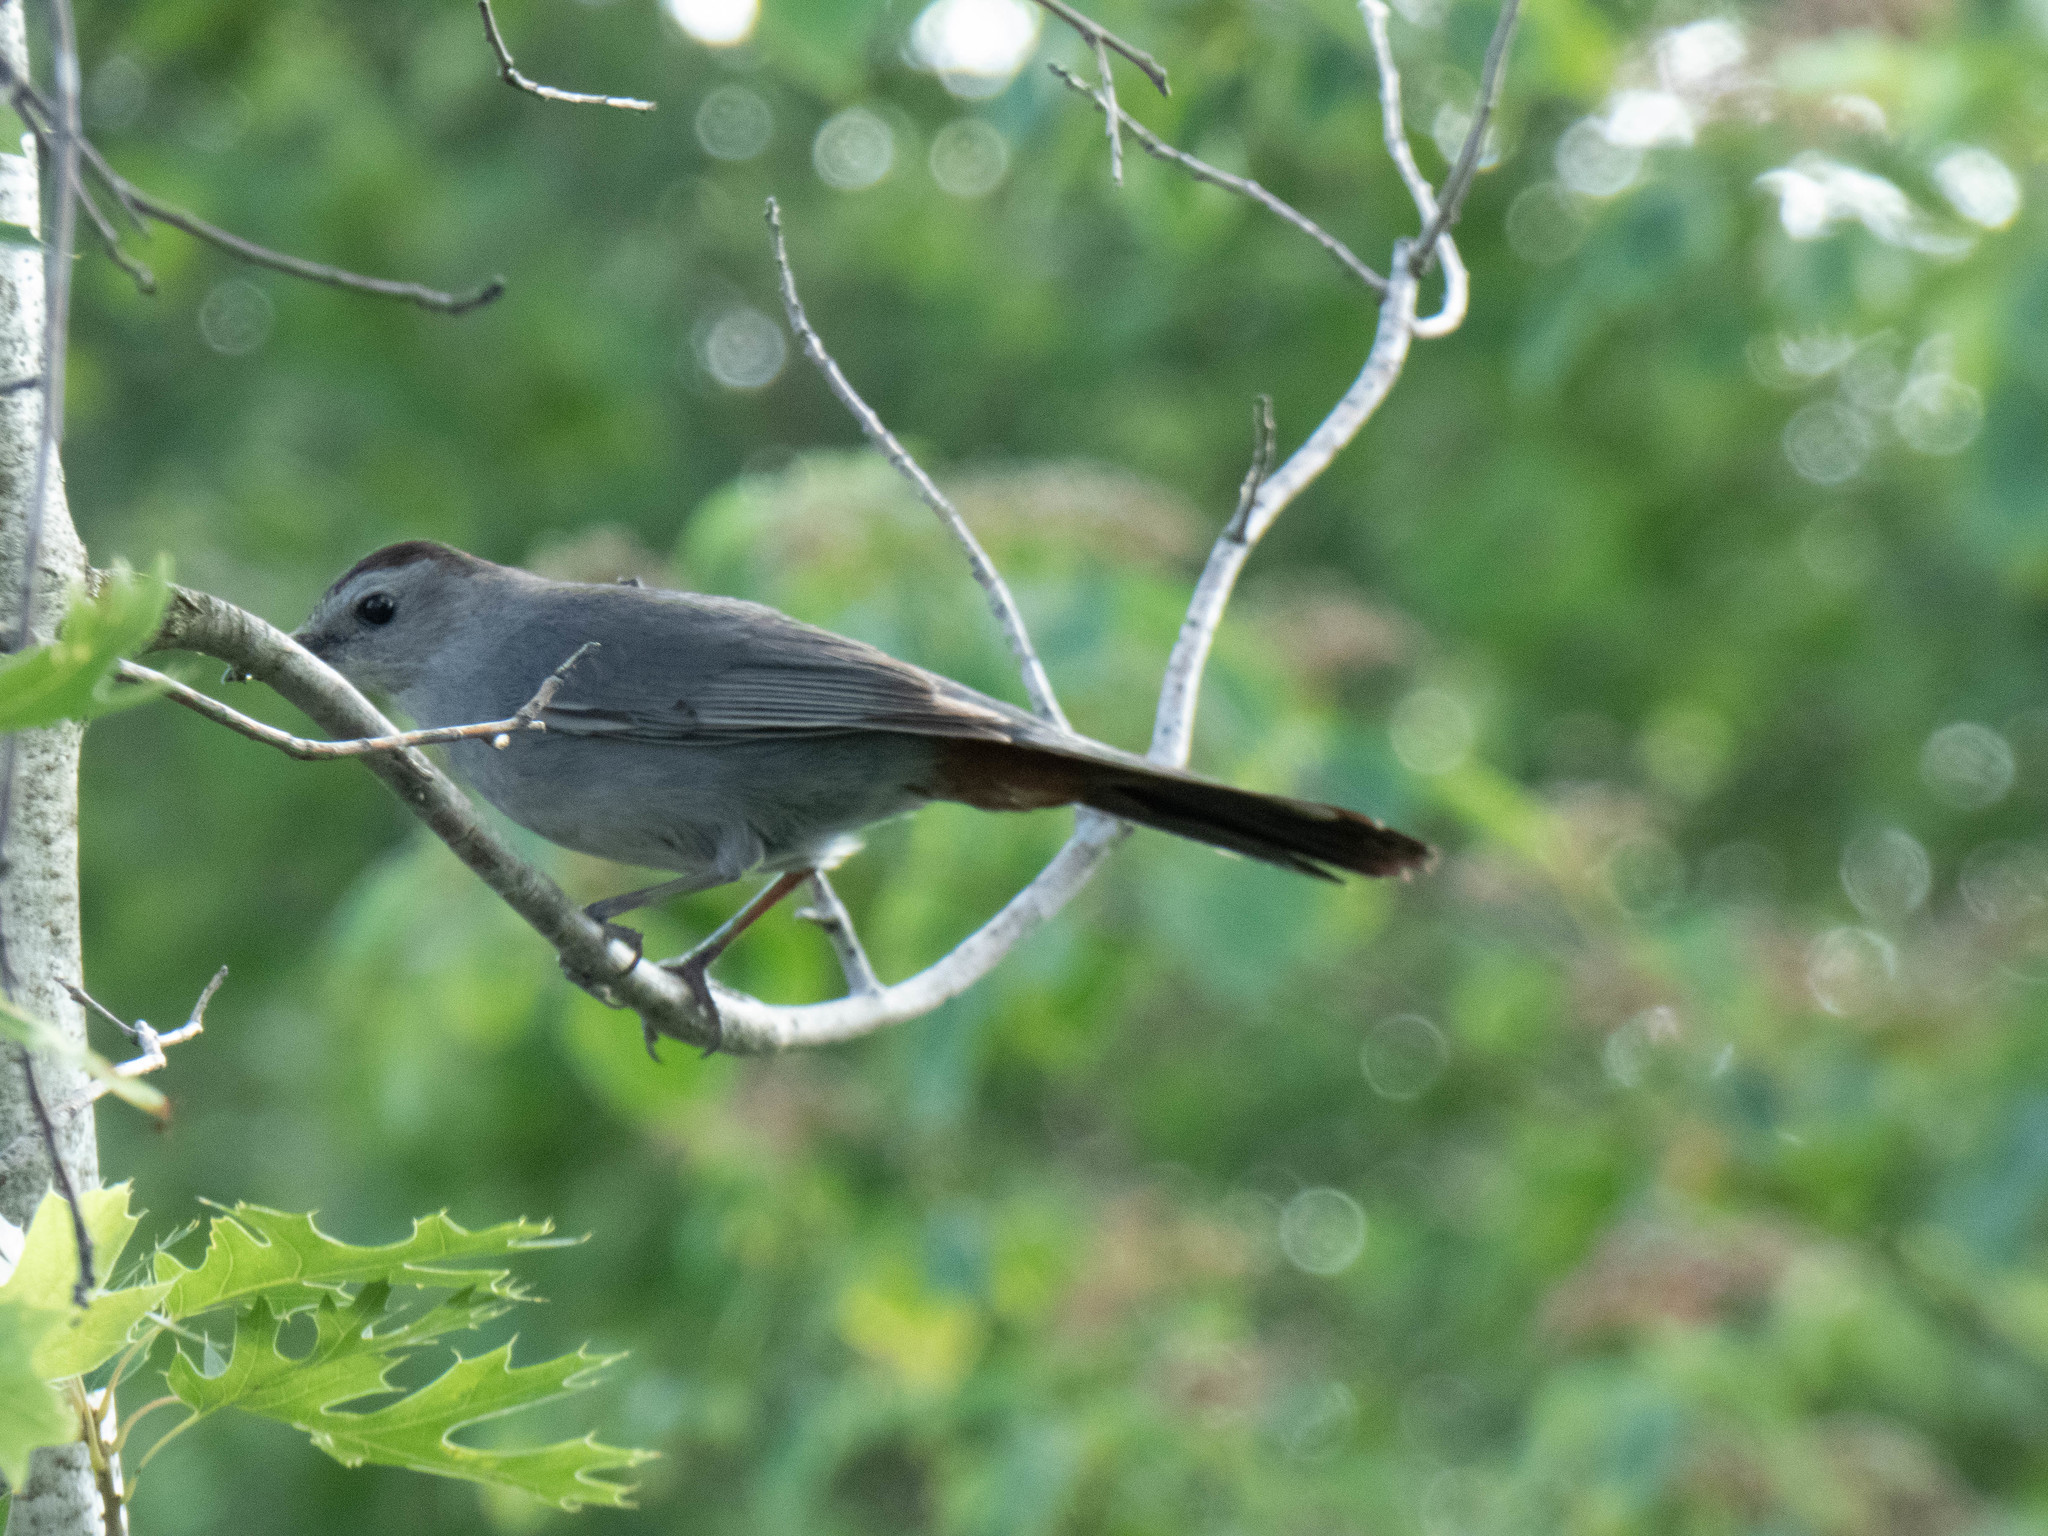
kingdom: Animalia
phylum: Chordata
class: Aves
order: Passeriformes
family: Mimidae
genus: Dumetella
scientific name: Dumetella carolinensis
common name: Gray catbird
